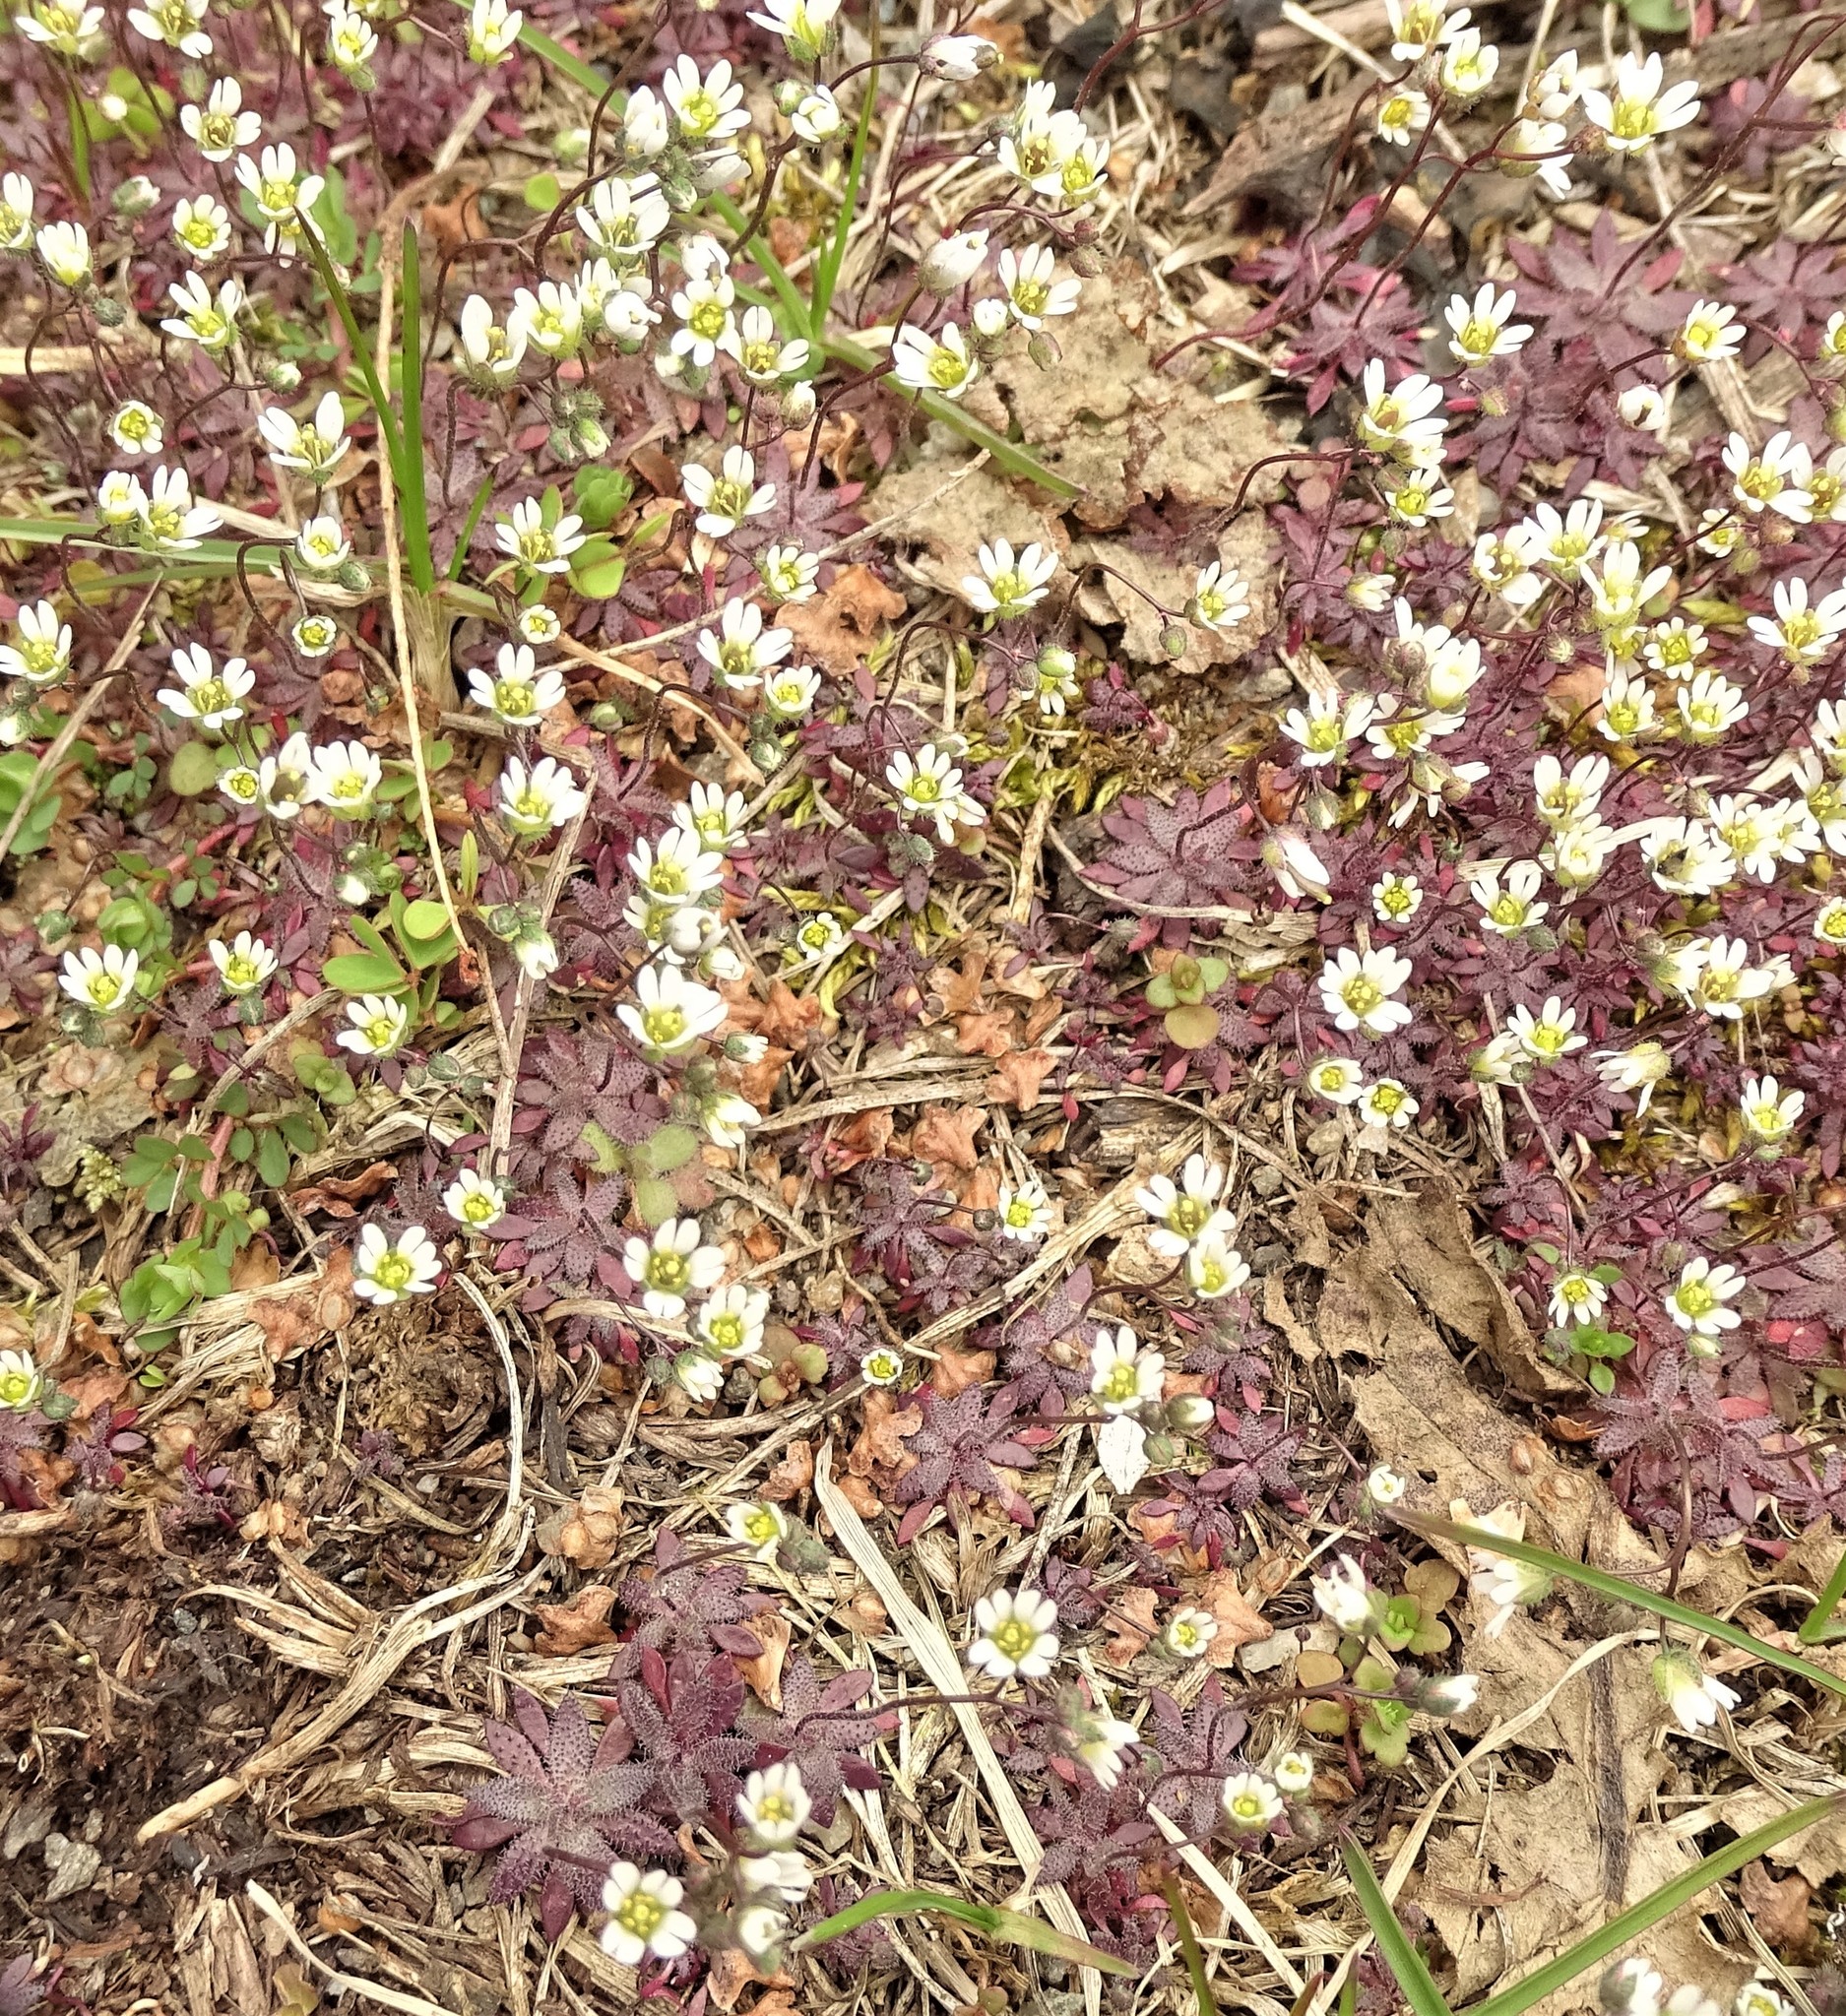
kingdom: Plantae
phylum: Tracheophyta
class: Magnoliopsida
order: Brassicales
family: Brassicaceae
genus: Draba
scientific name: Draba verna
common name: Spring draba
